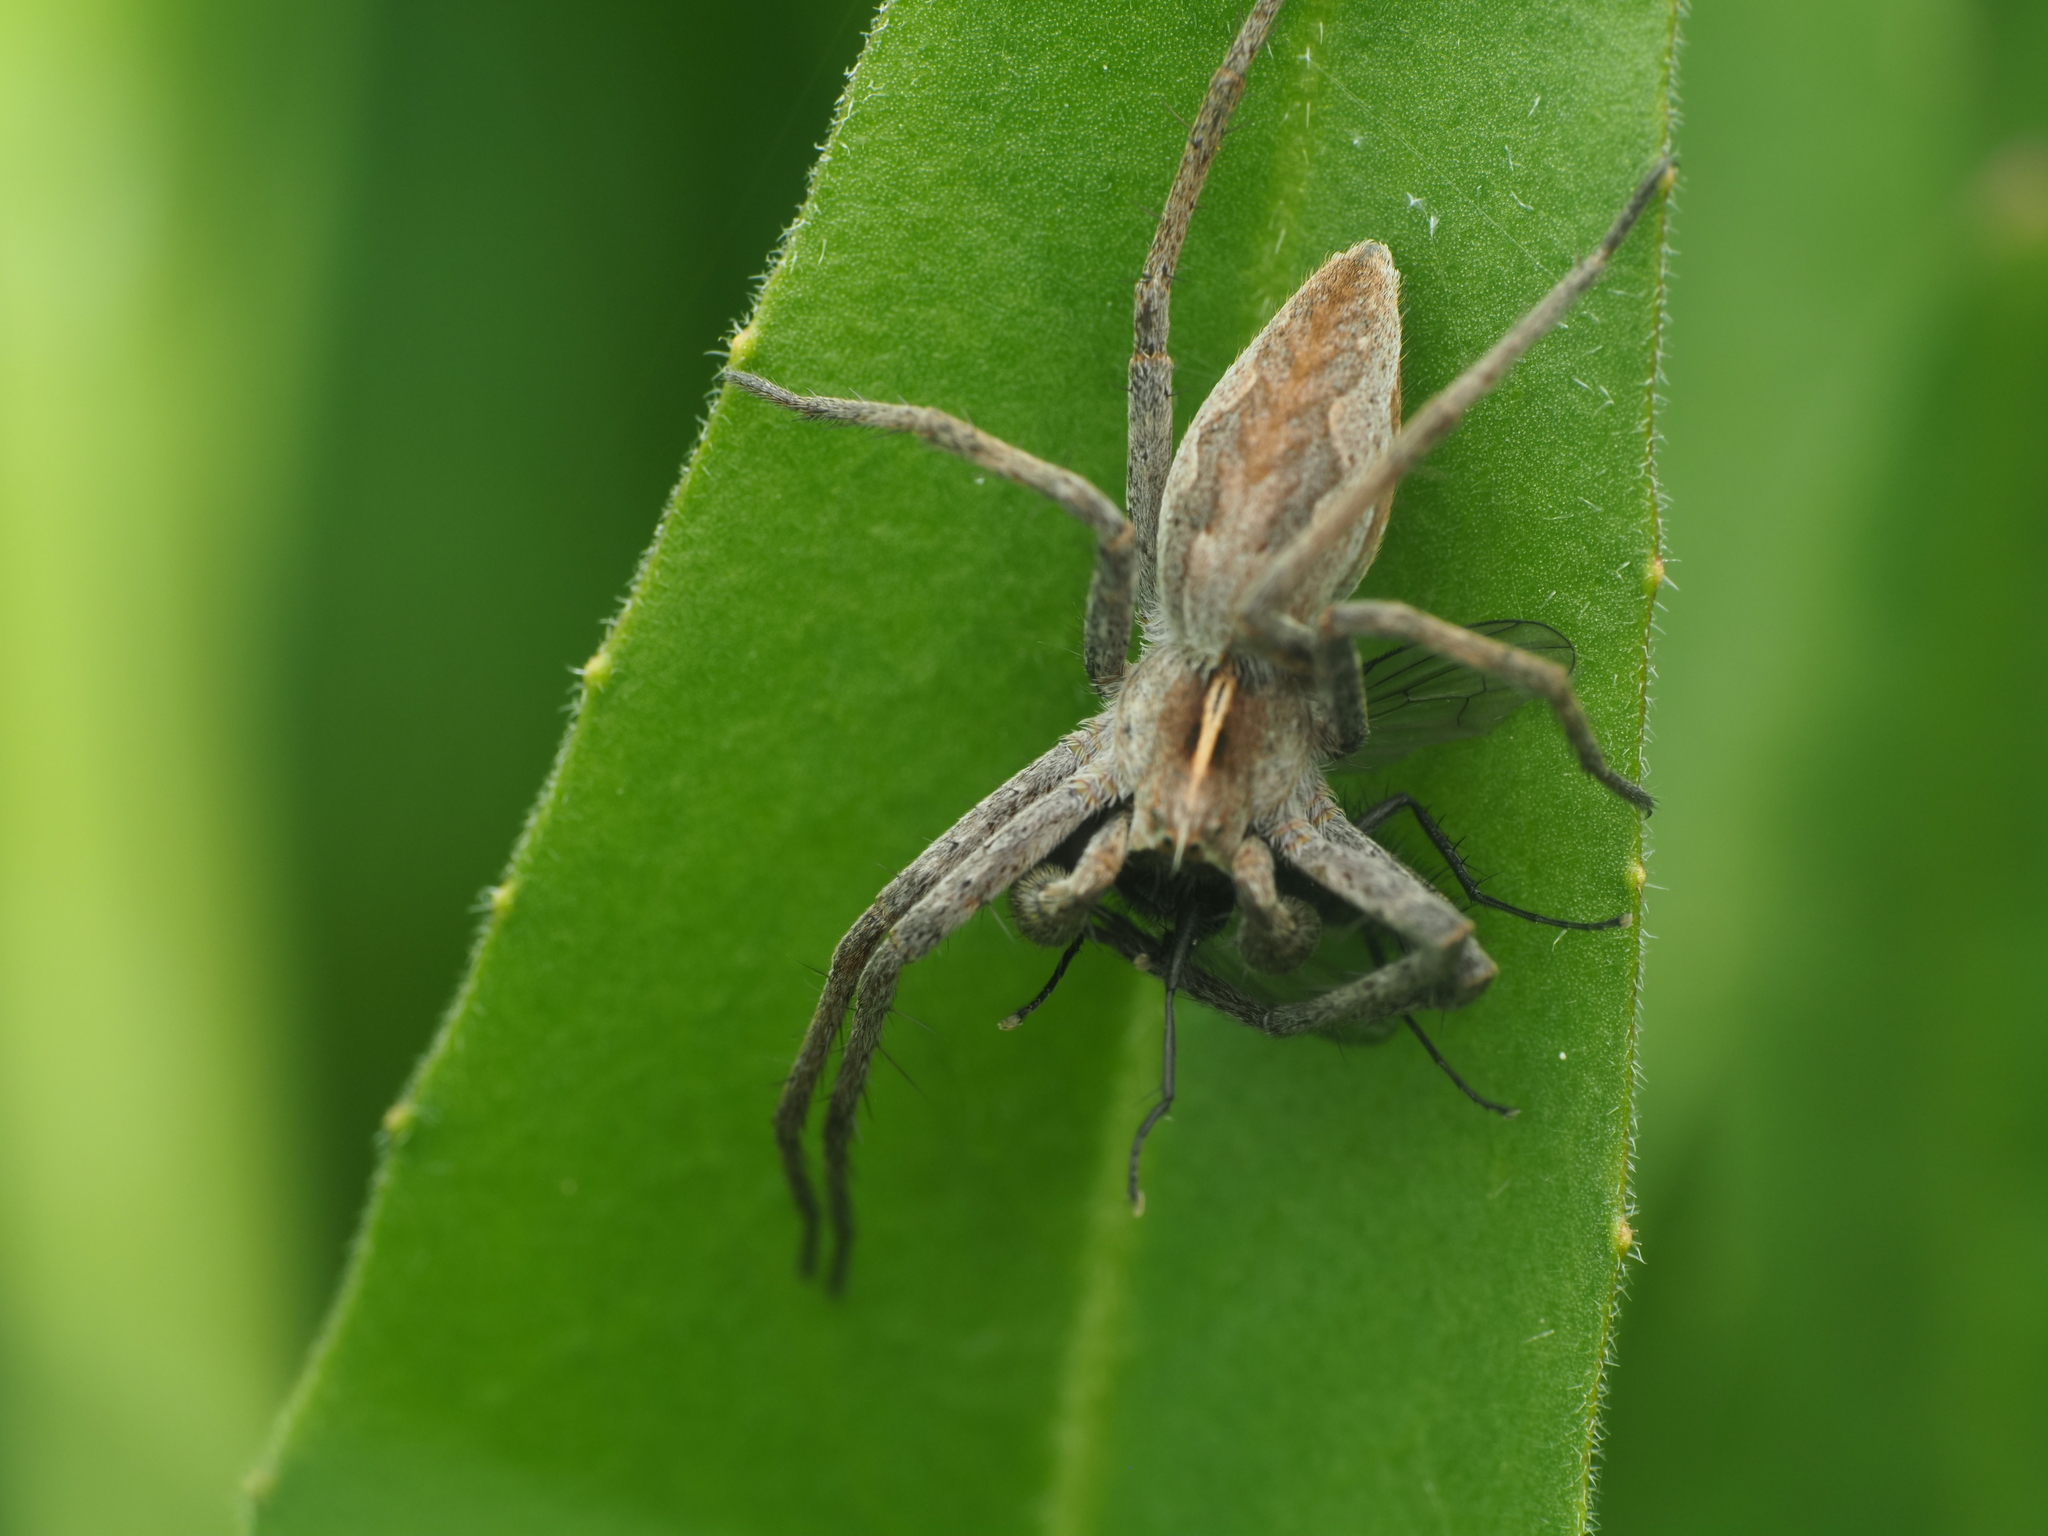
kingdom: Animalia
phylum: Arthropoda
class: Arachnida
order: Araneae
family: Pisauridae
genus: Pisaura
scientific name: Pisaura mirabilis
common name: Tent spider
